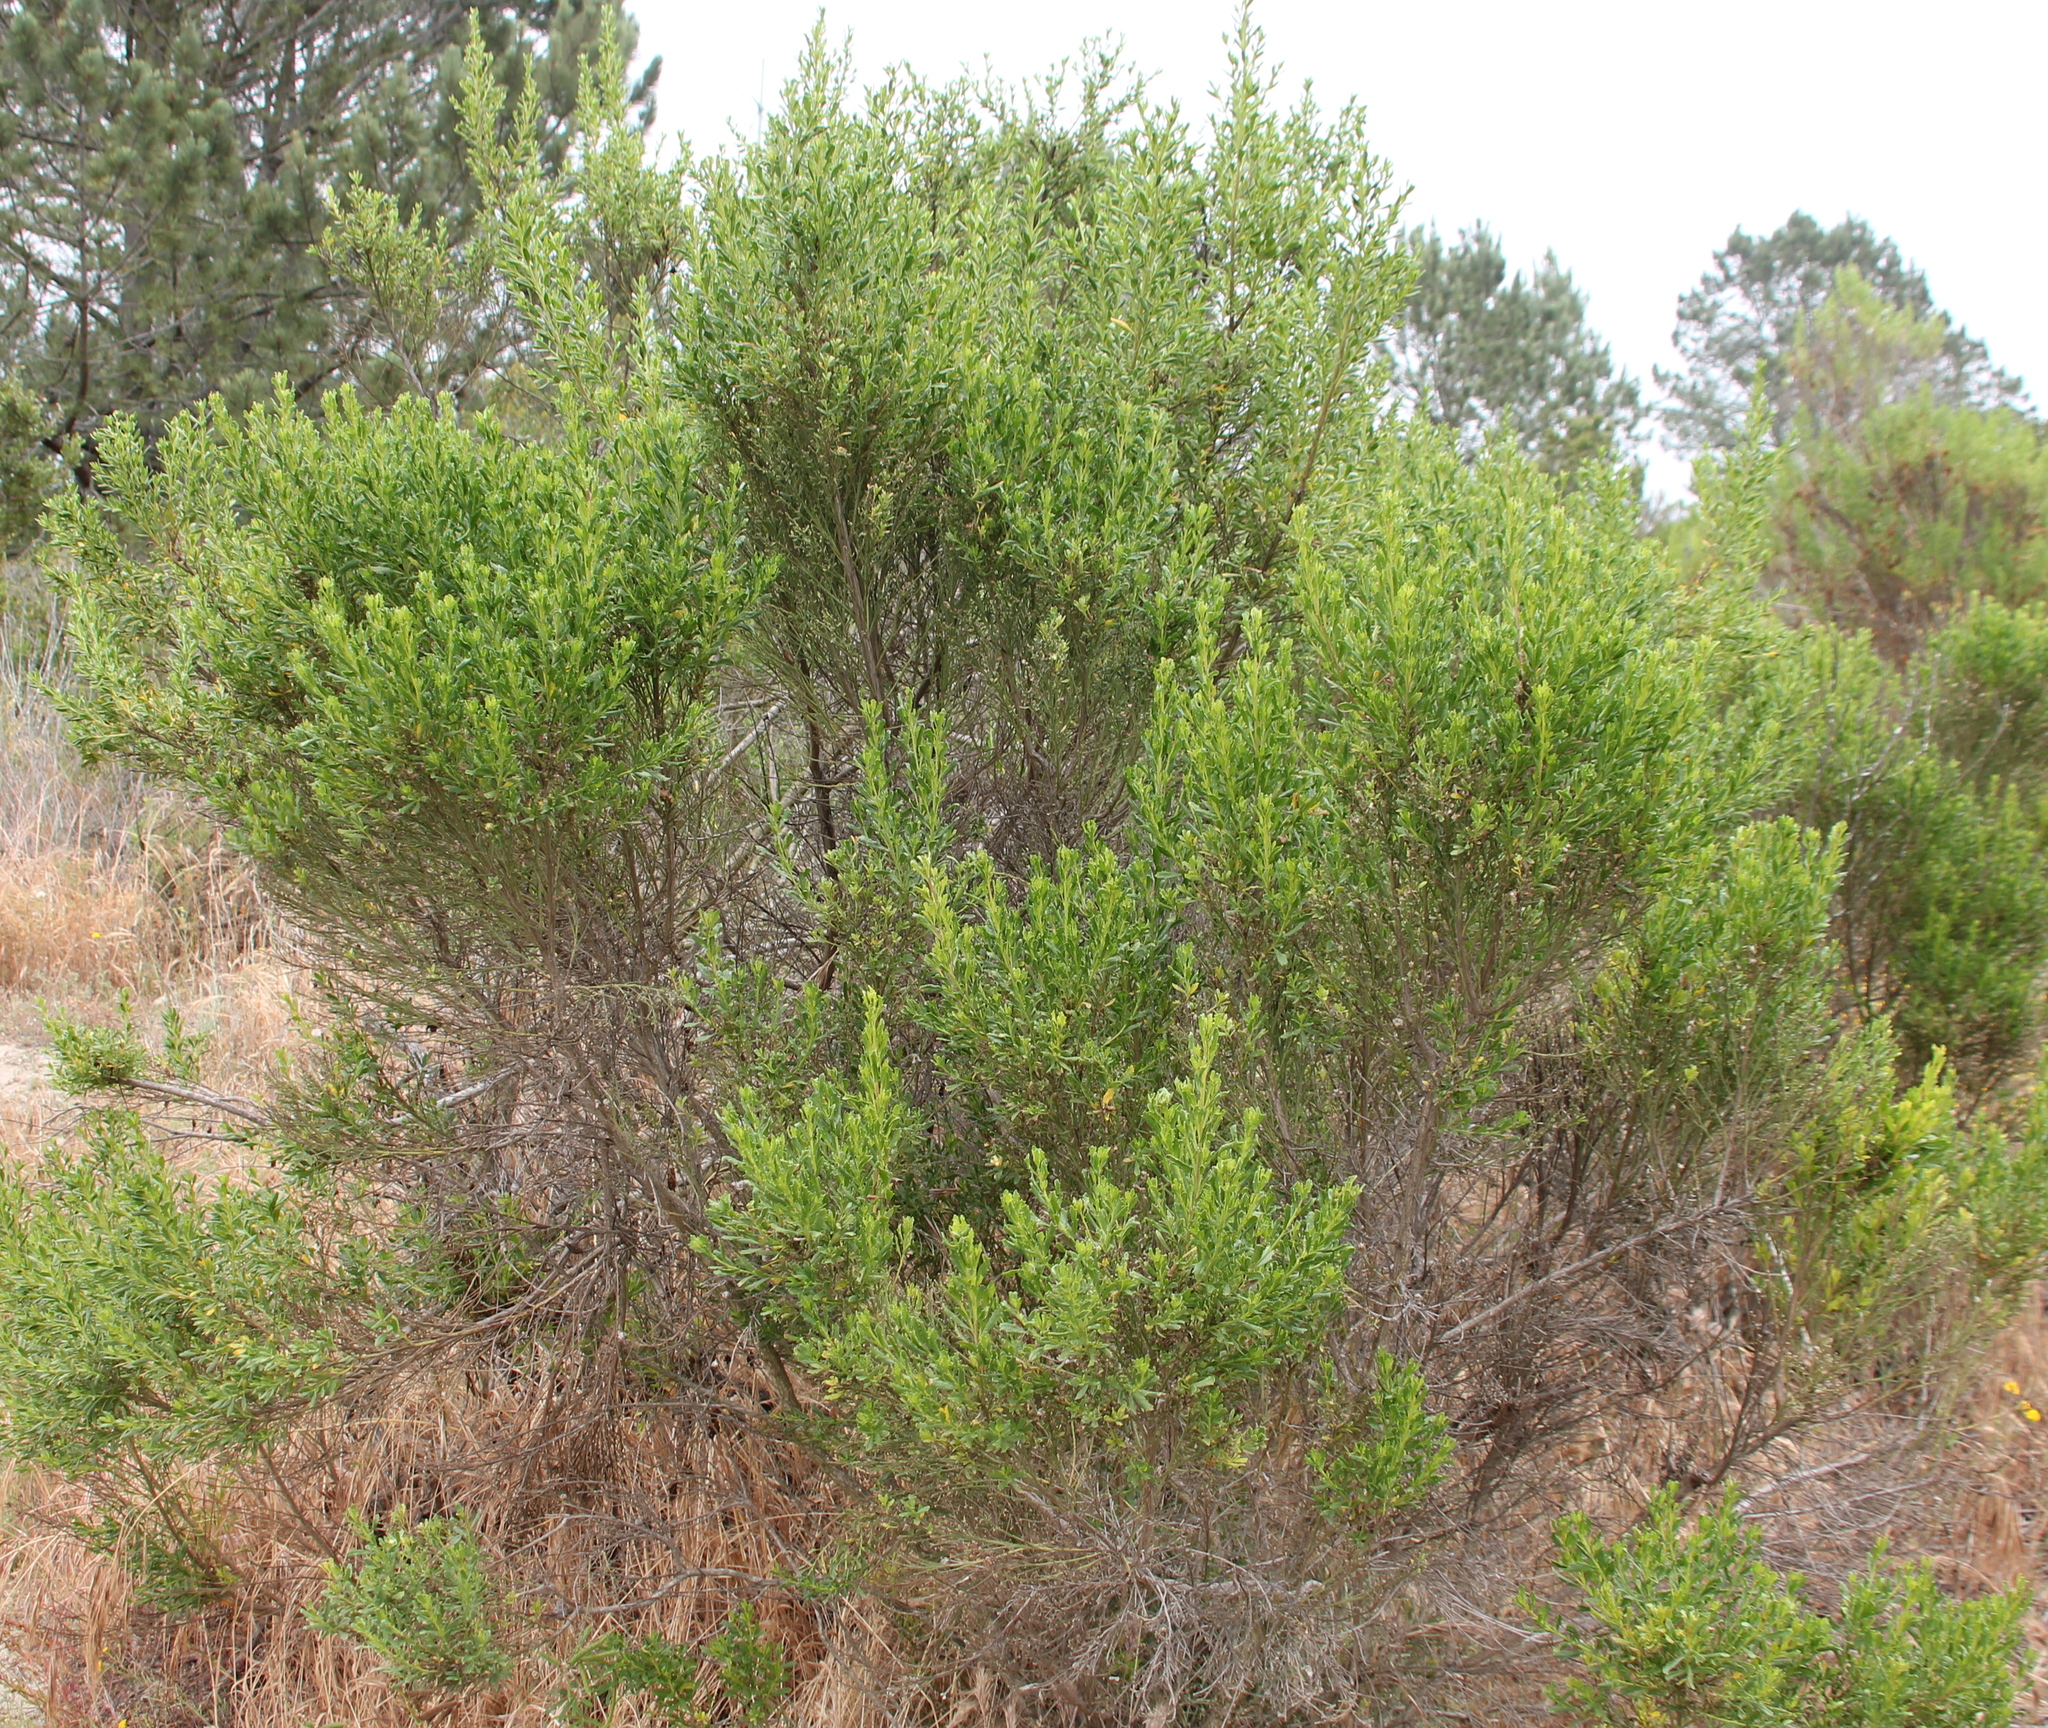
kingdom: Plantae
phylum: Tracheophyta
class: Magnoliopsida
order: Asterales
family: Asteraceae
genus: Baccharis
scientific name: Baccharis pilularis
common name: Coyotebrush
